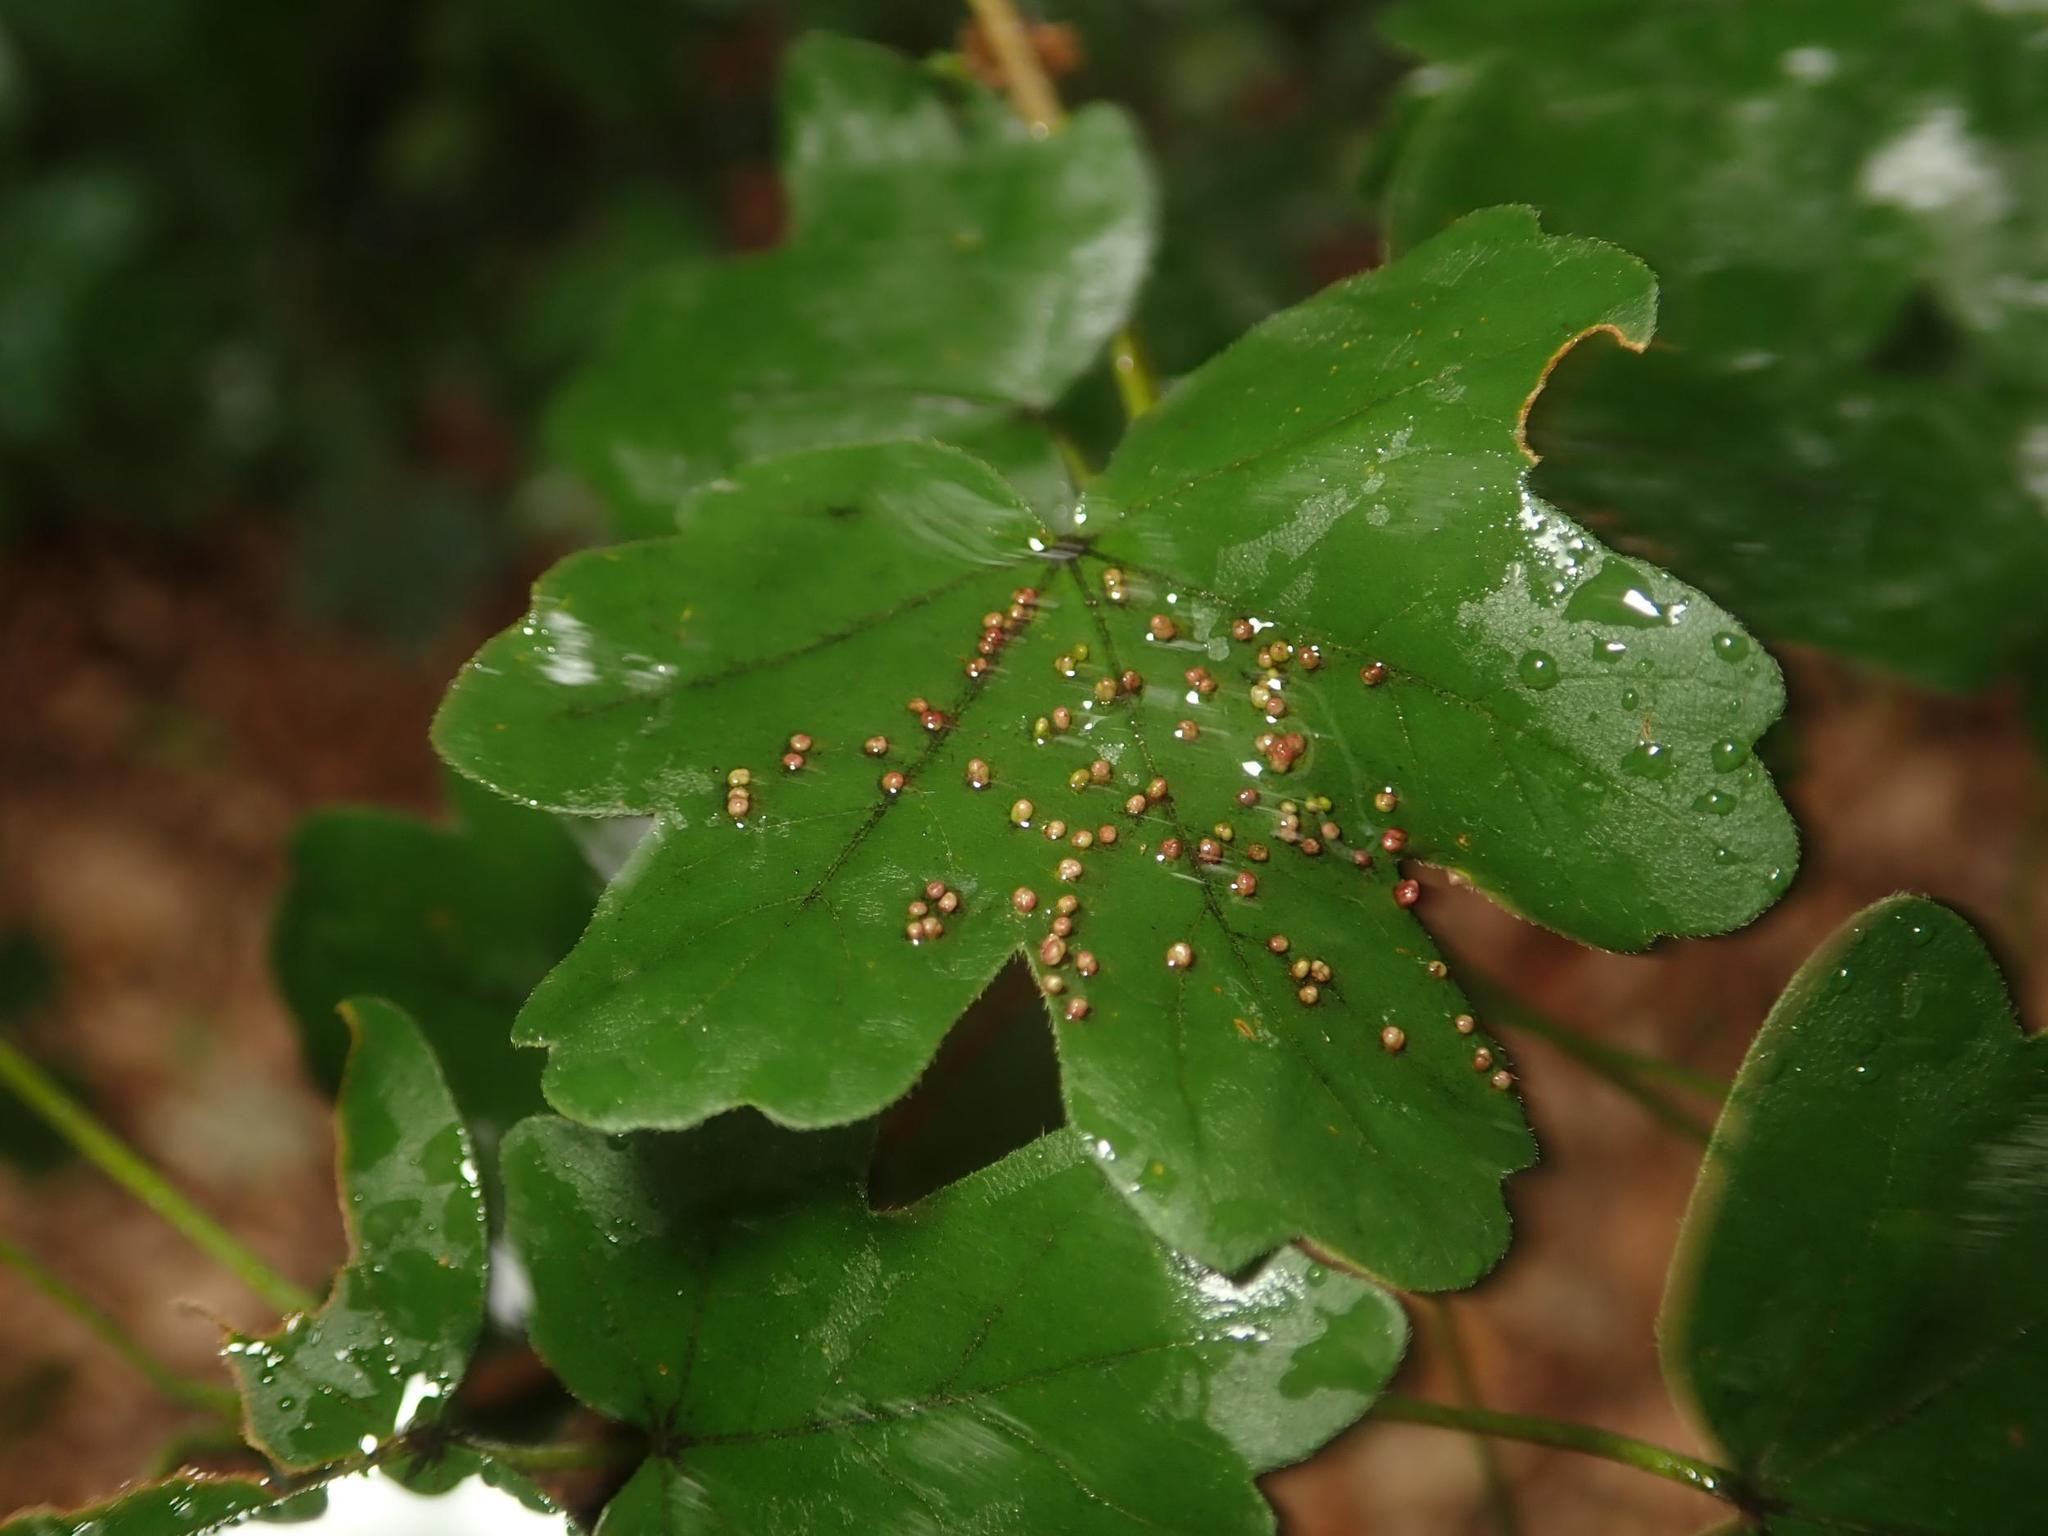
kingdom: Plantae
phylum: Tracheophyta
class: Magnoliopsida
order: Sapindales
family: Sapindaceae
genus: Acer
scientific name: Acer campestre
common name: Field maple
